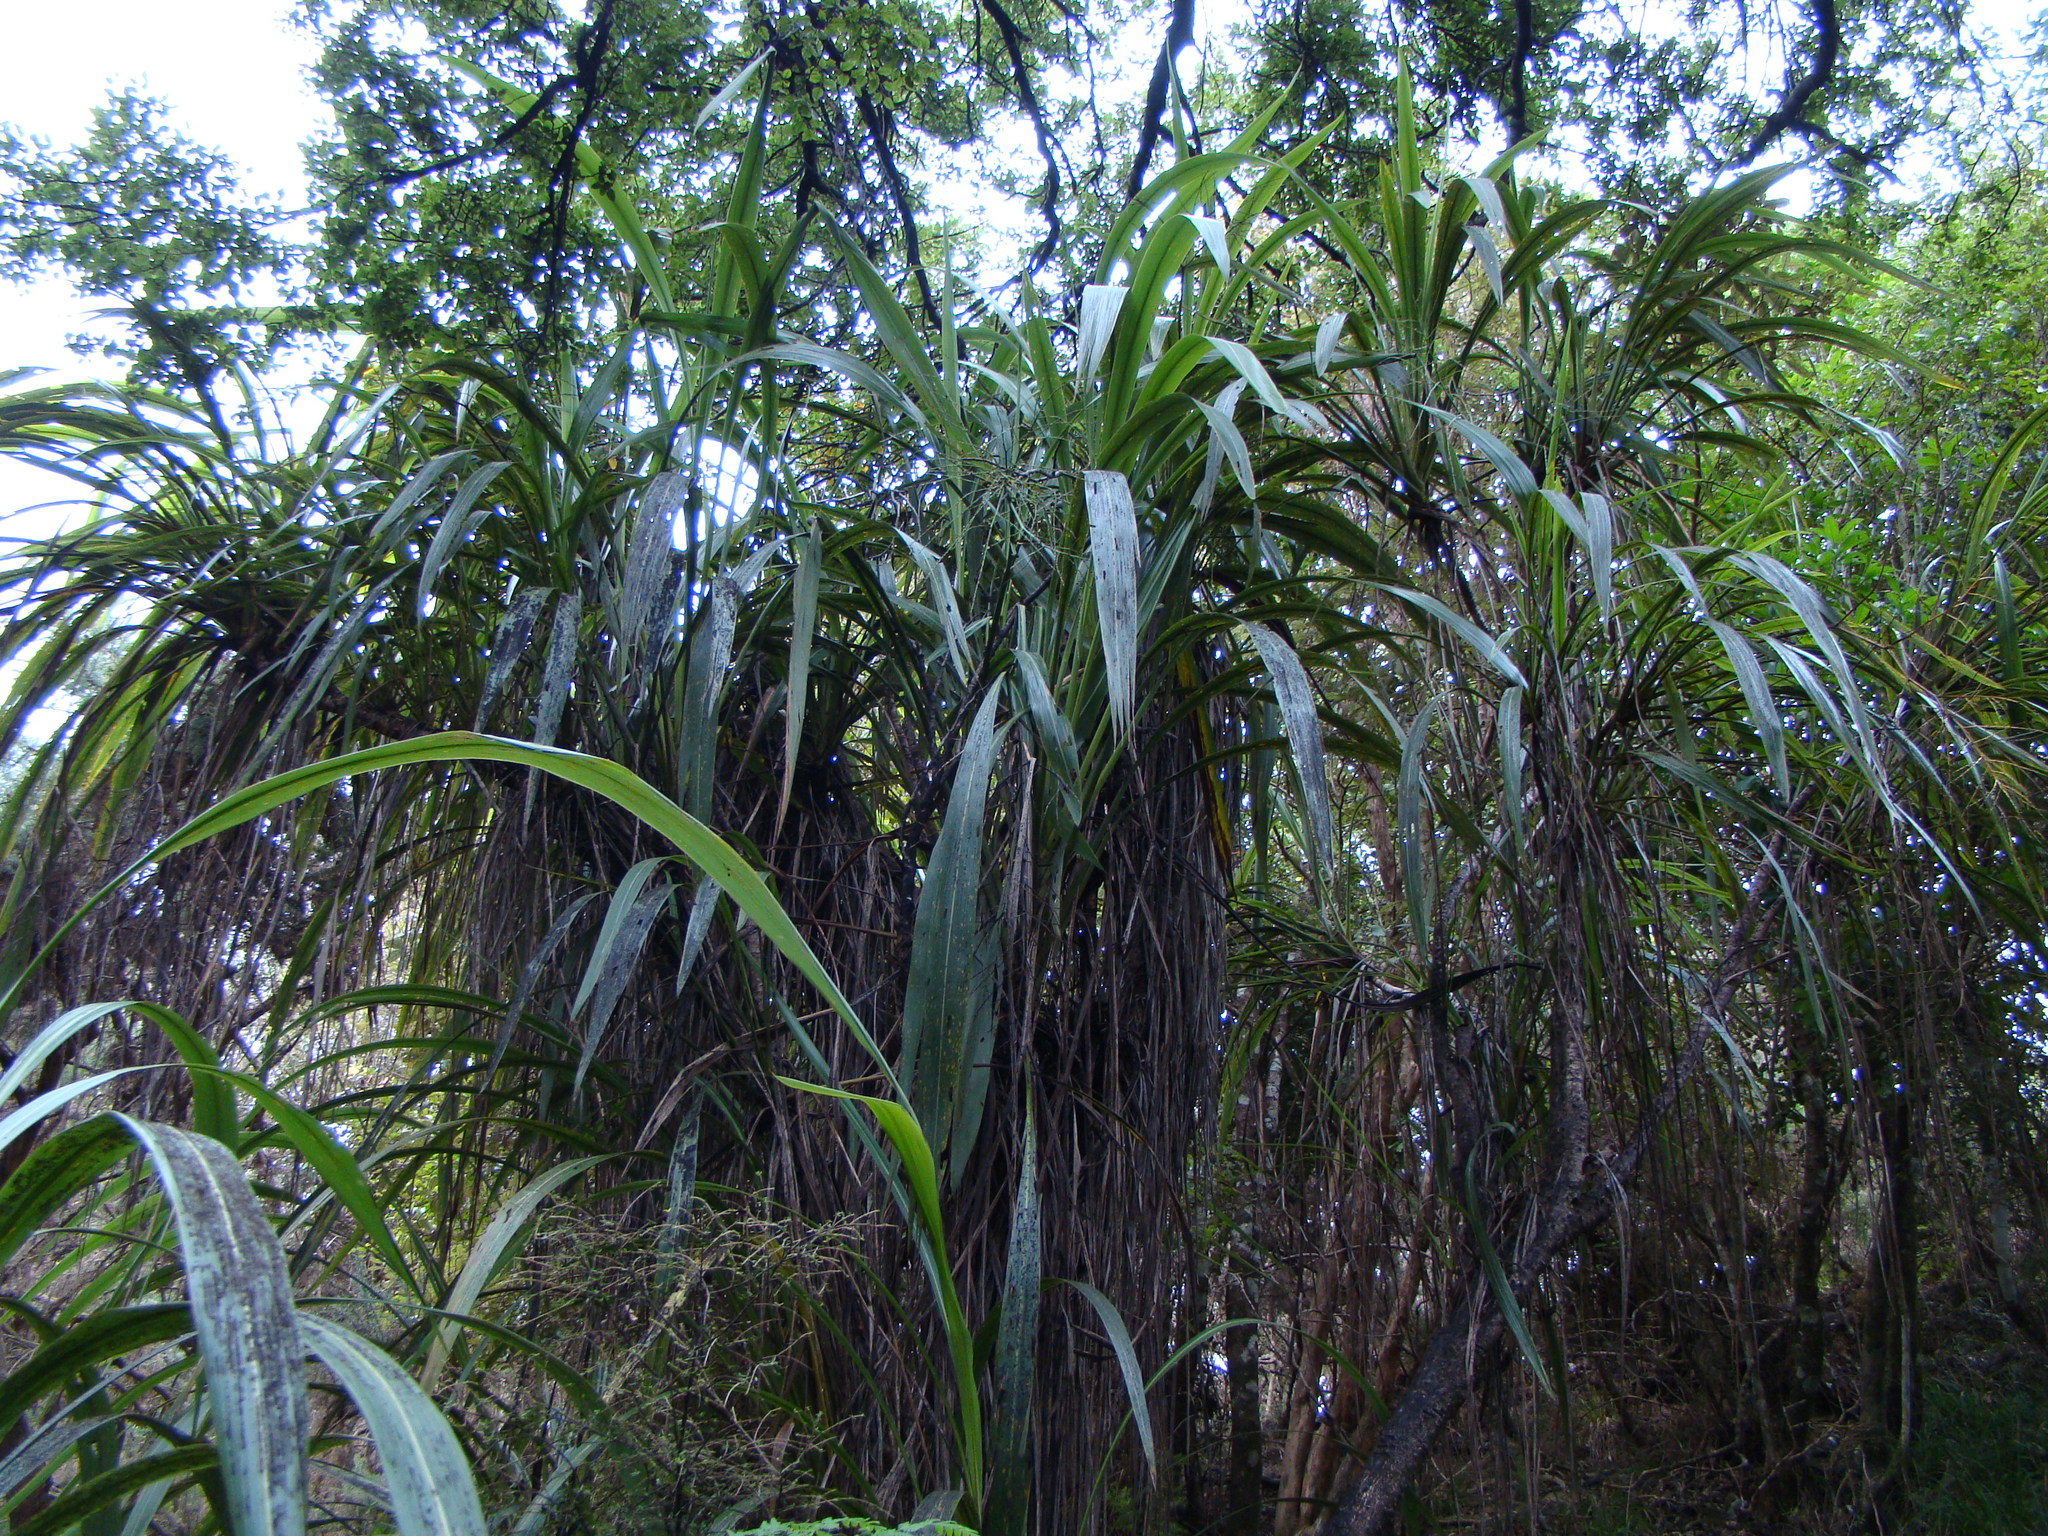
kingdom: Plantae
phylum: Tracheophyta
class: Liliopsida
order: Asparagales
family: Asparagaceae
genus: Cordyline
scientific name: Cordyline banksii
